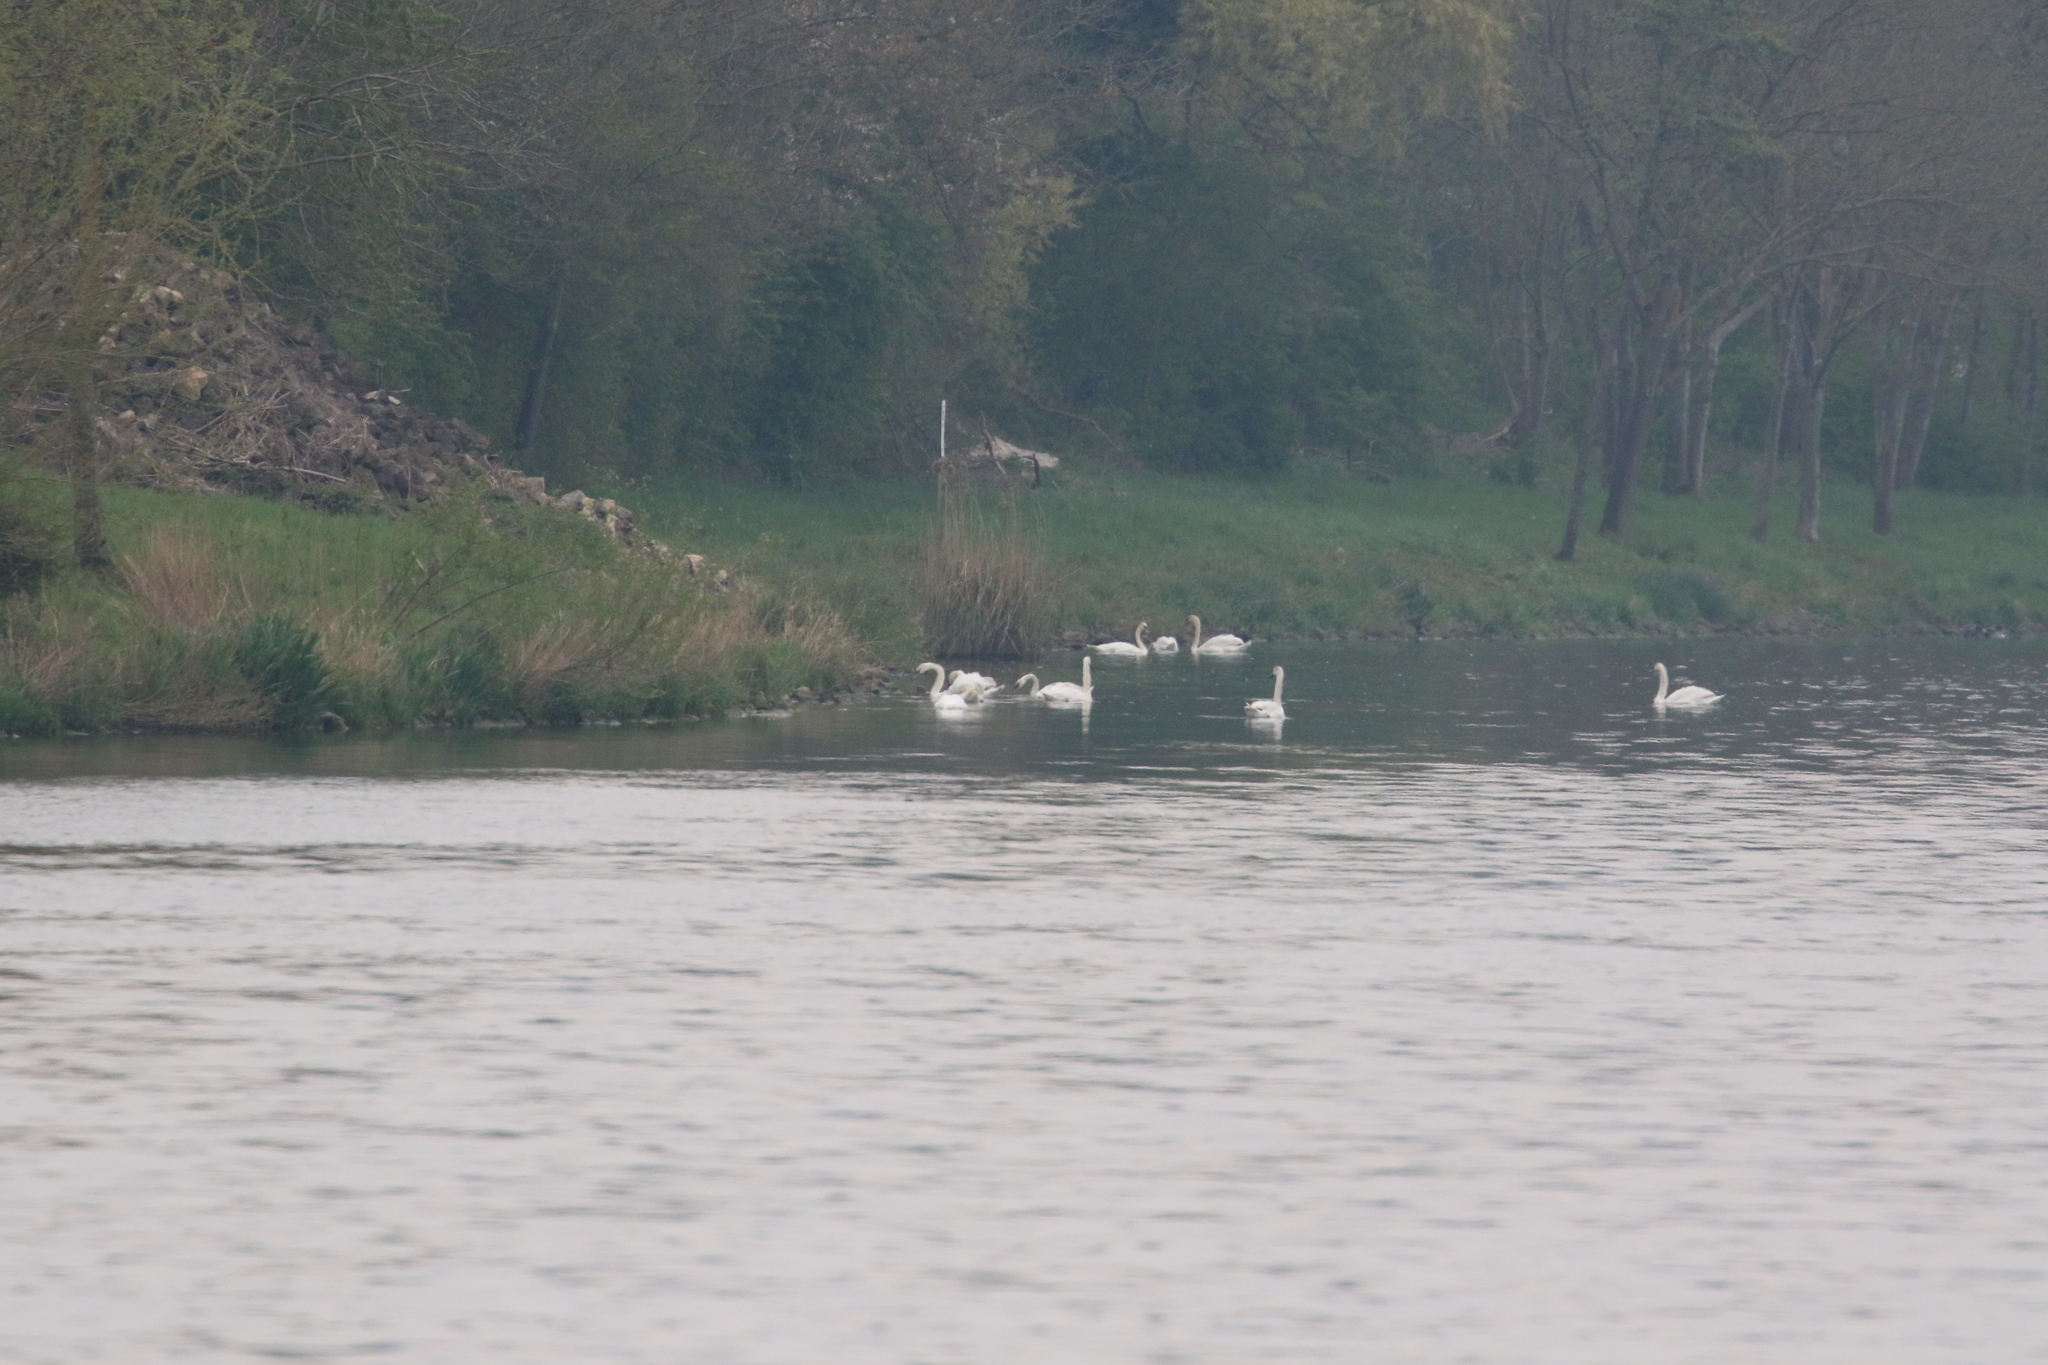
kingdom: Animalia
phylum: Chordata
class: Aves
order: Anseriformes
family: Anatidae
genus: Cygnus
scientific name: Cygnus olor
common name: Mute swan
